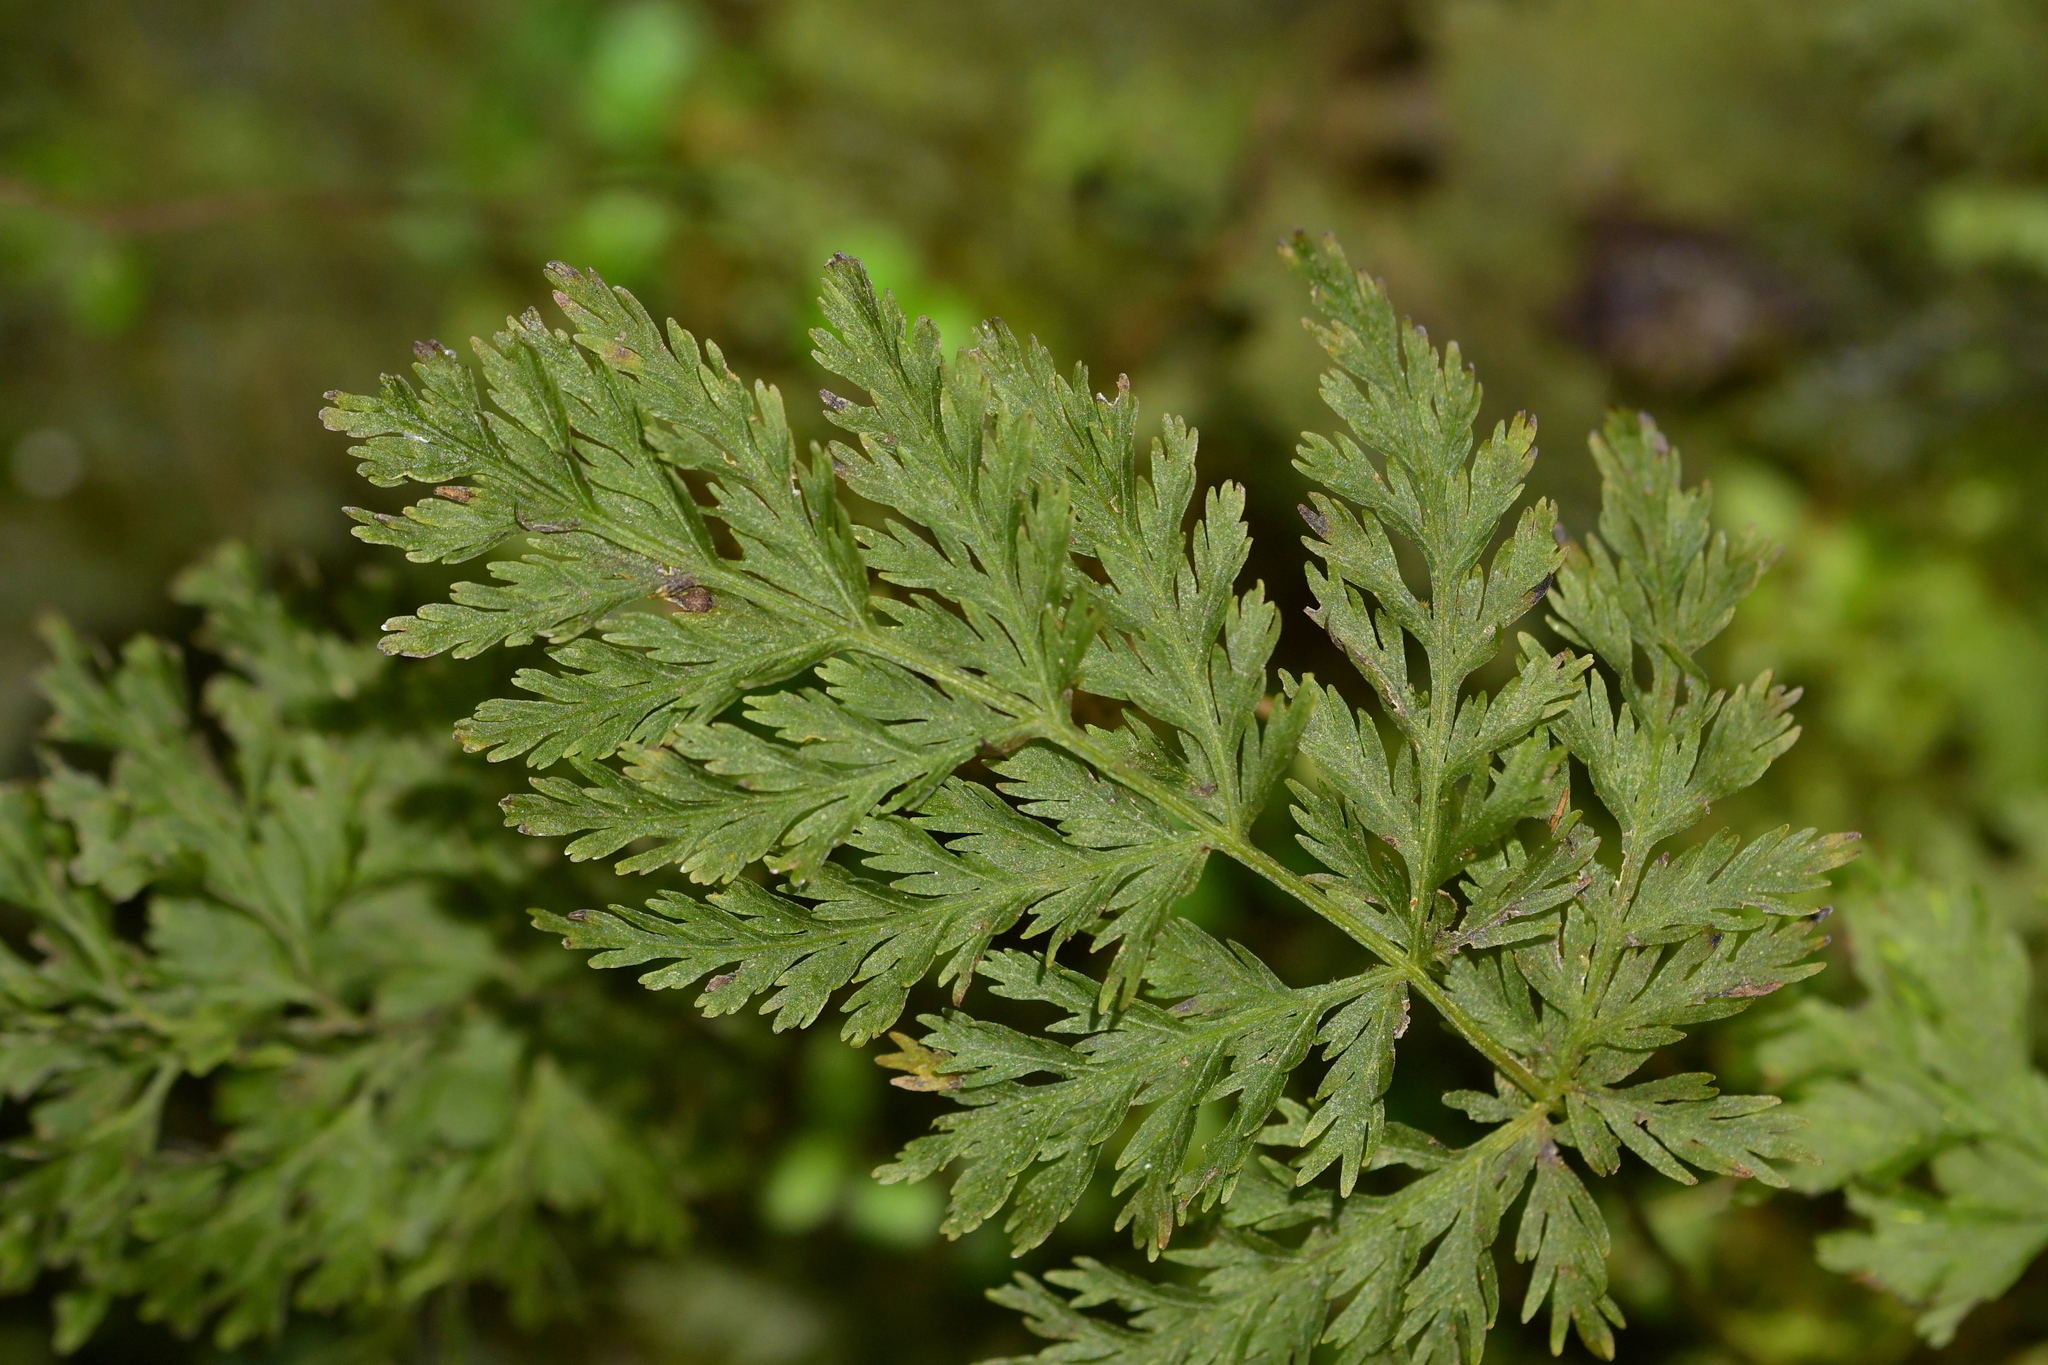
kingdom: Plantae
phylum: Tracheophyta
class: Polypodiopsida
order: Osmundales
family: Osmundaceae
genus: Leptopteris
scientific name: Leptopteris hymenophylloides
